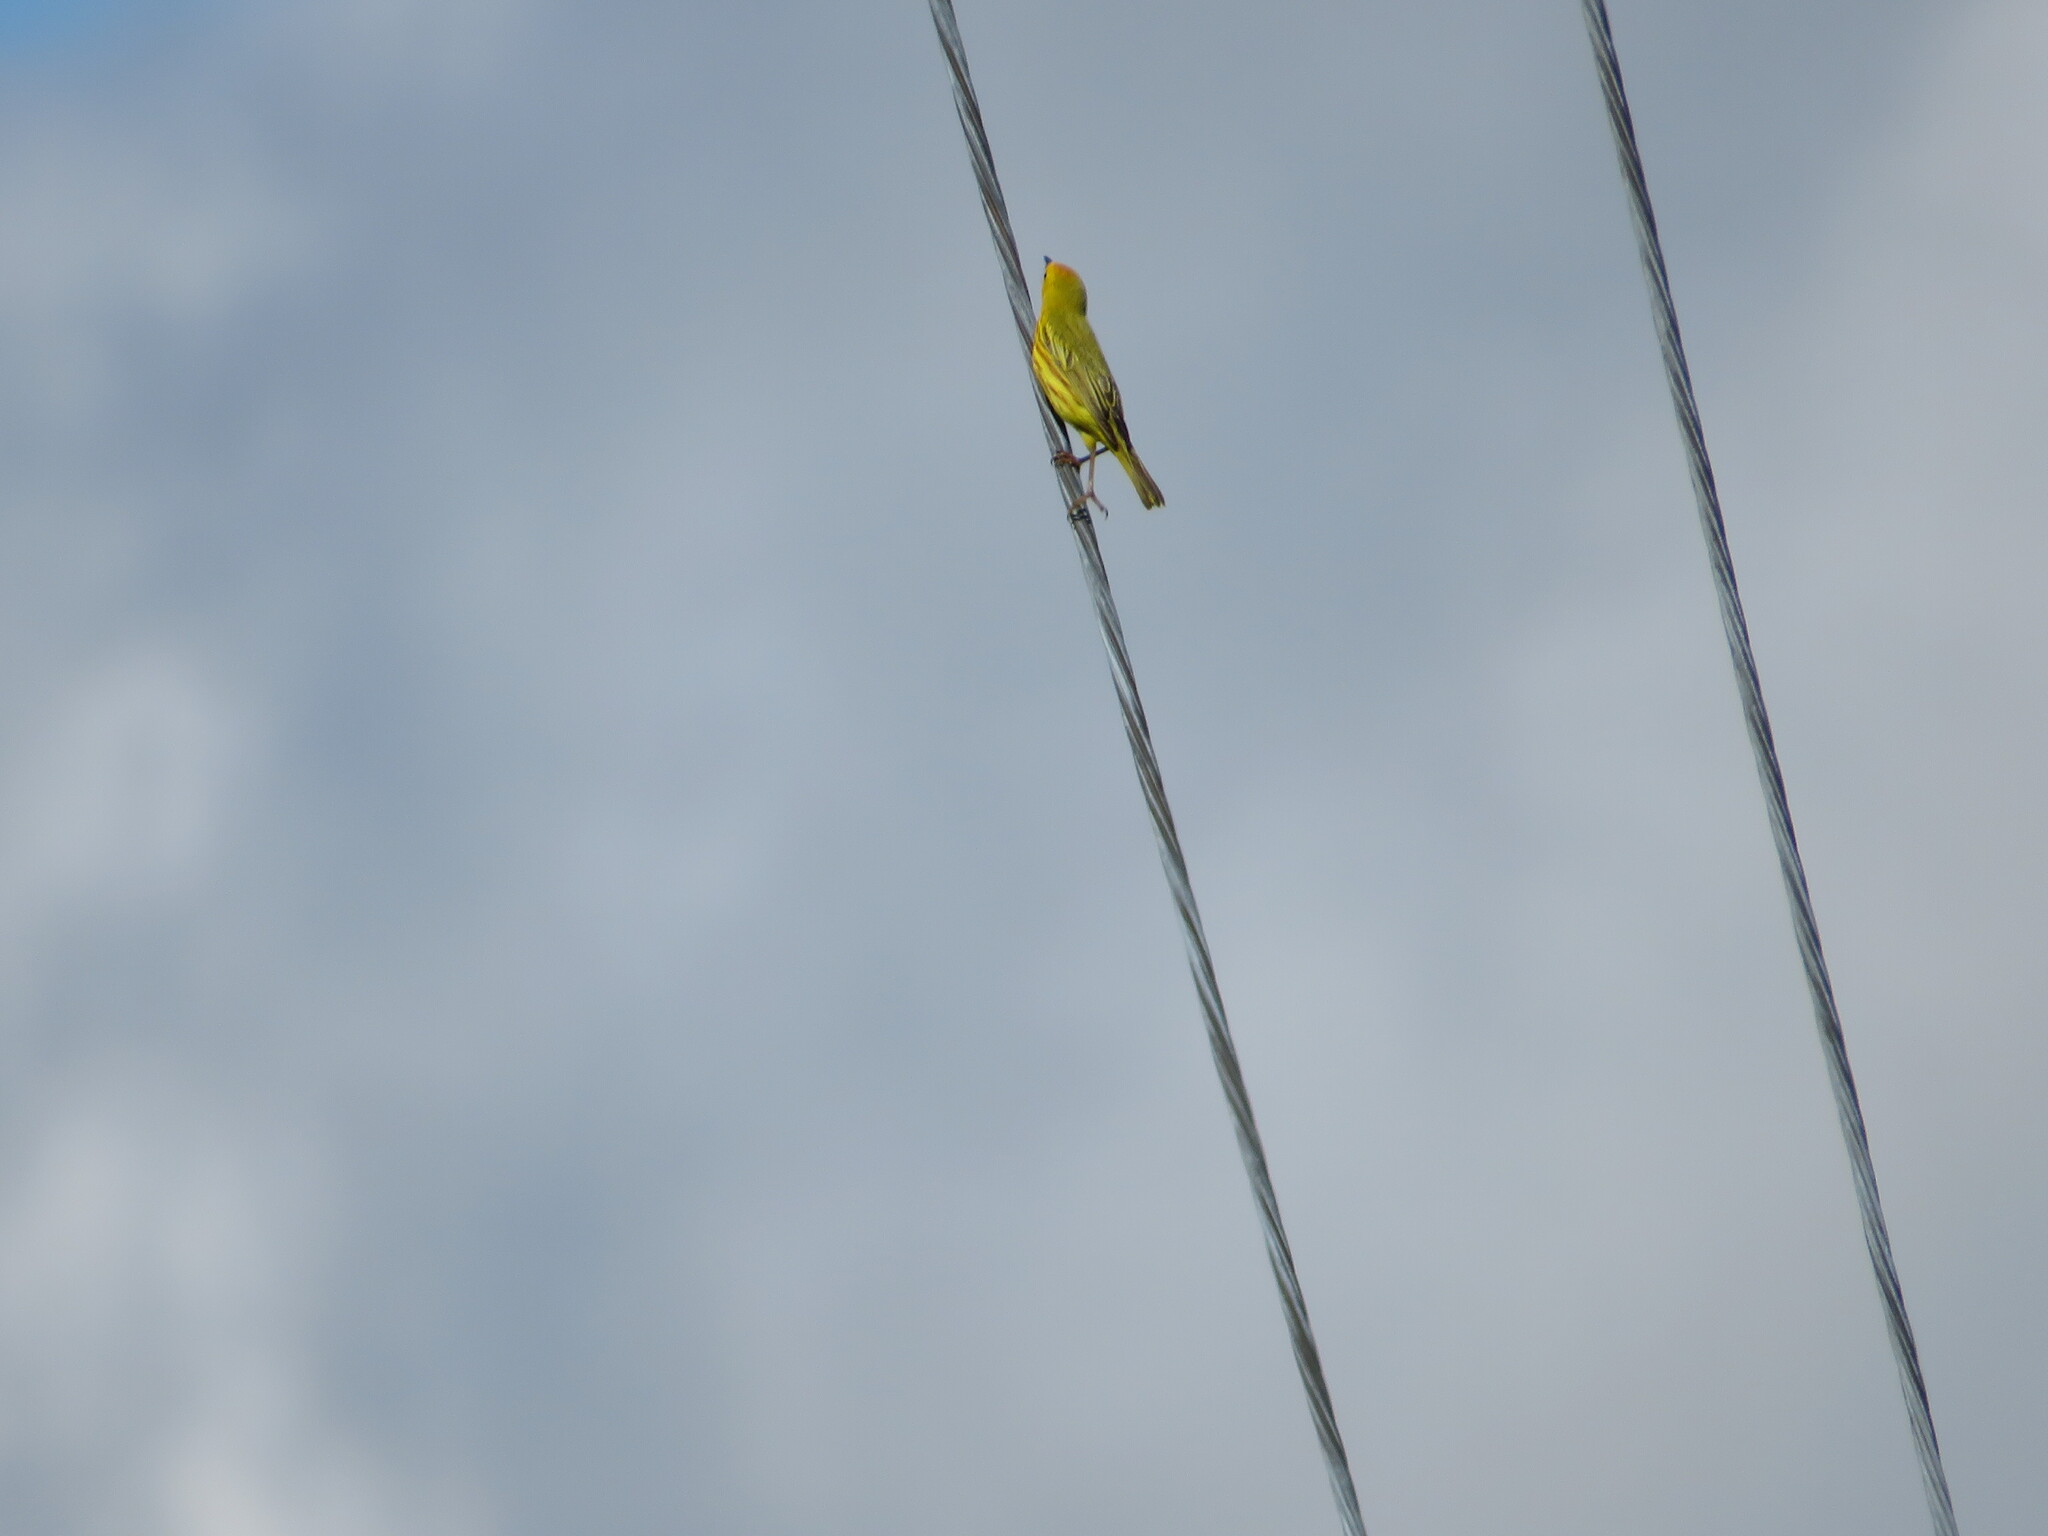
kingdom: Animalia
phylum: Chordata
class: Aves
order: Passeriformes
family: Parulidae
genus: Setophaga
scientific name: Setophaga petechia
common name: Yellow warbler
